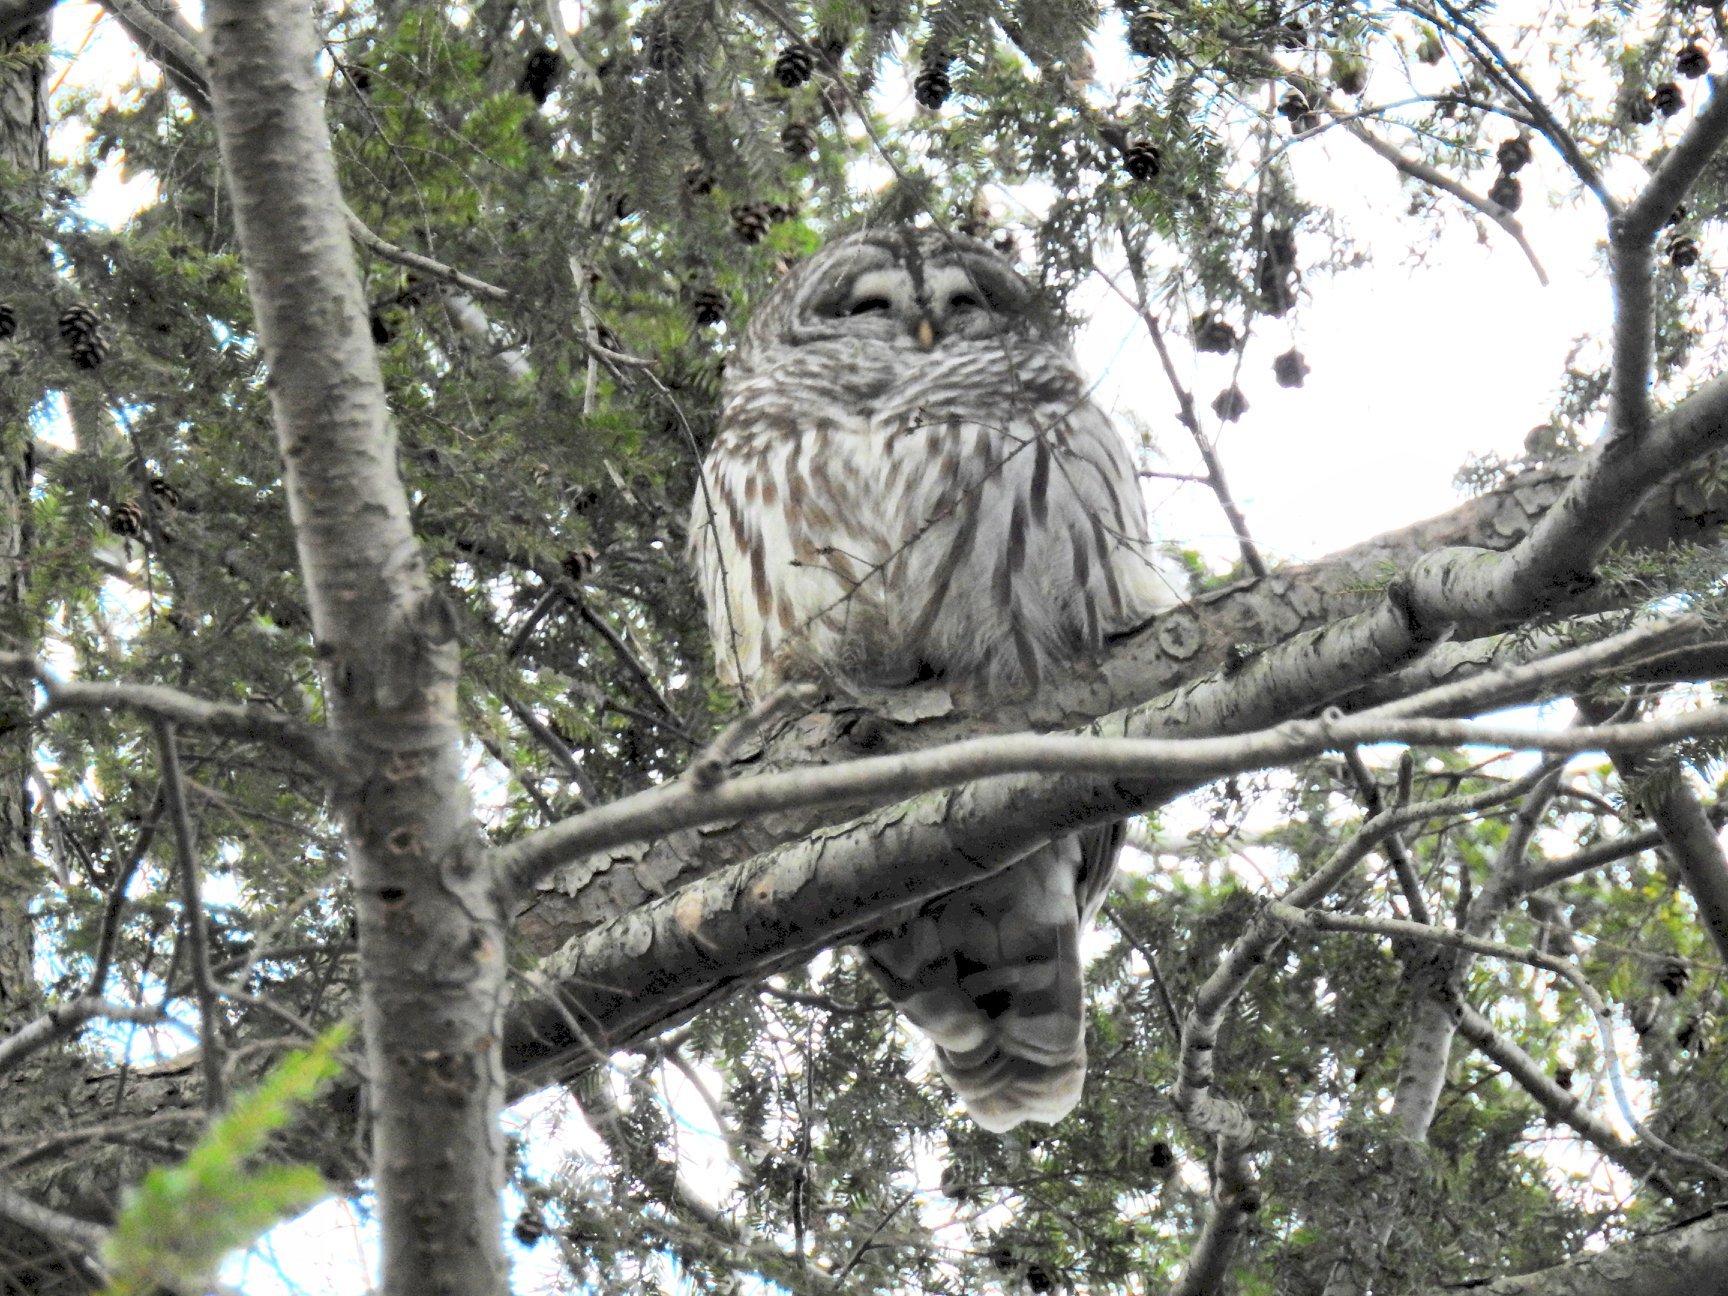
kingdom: Animalia
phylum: Chordata
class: Aves
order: Strigiformes
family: Strigidae
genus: Strix
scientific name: Strix varia
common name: Barred owl
